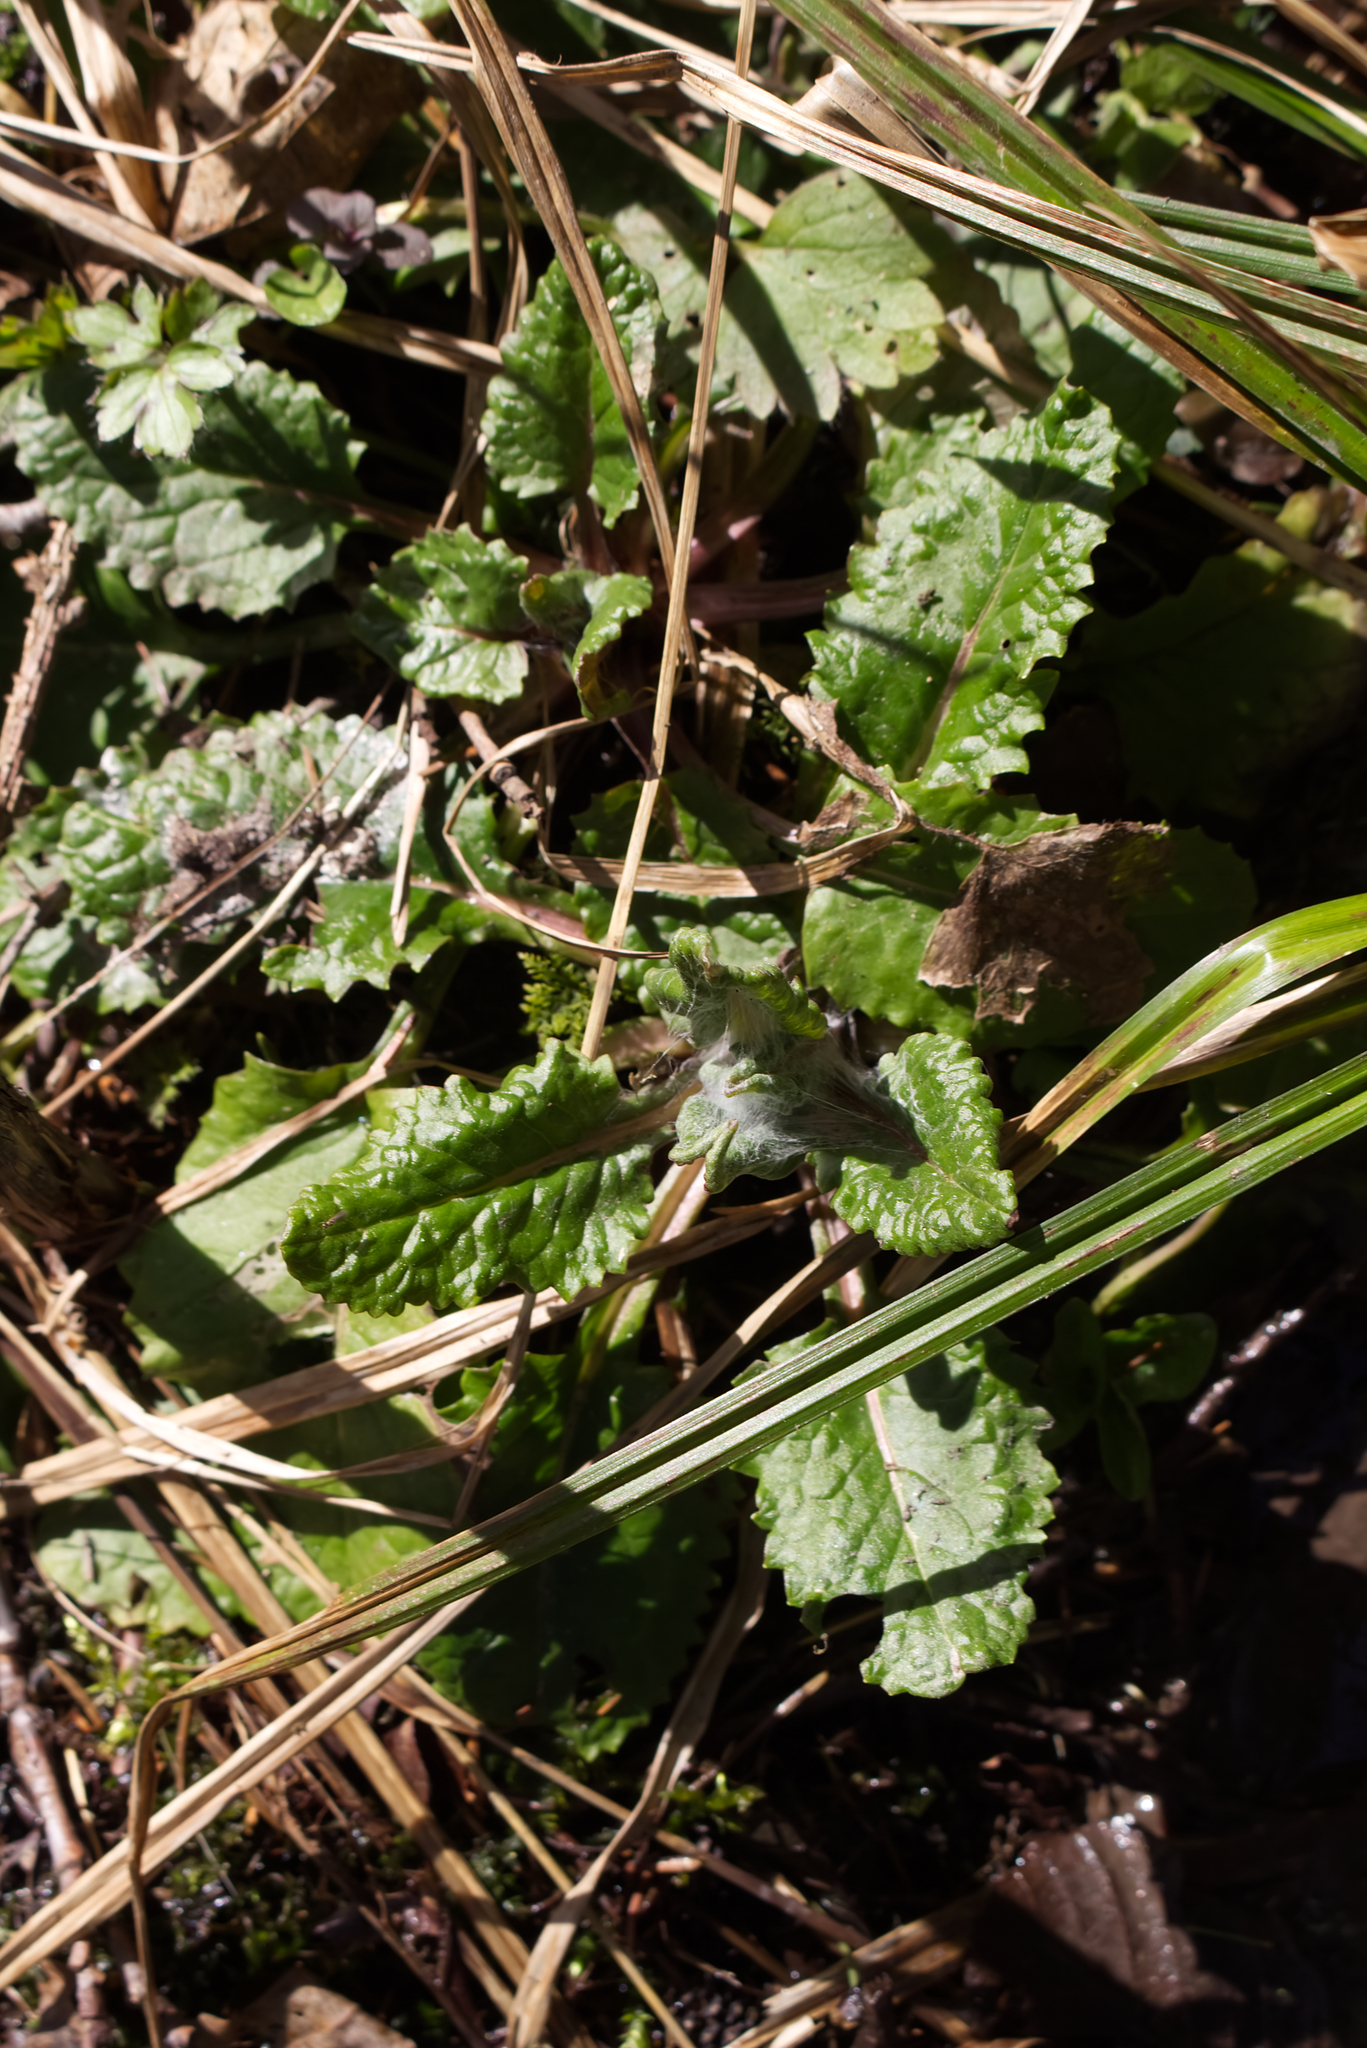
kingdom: Plantae
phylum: Tracheophyta
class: Magnoliopsida
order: Asterales
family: Asteraceae
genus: Tephroseris
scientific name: Tephroseris crispa
